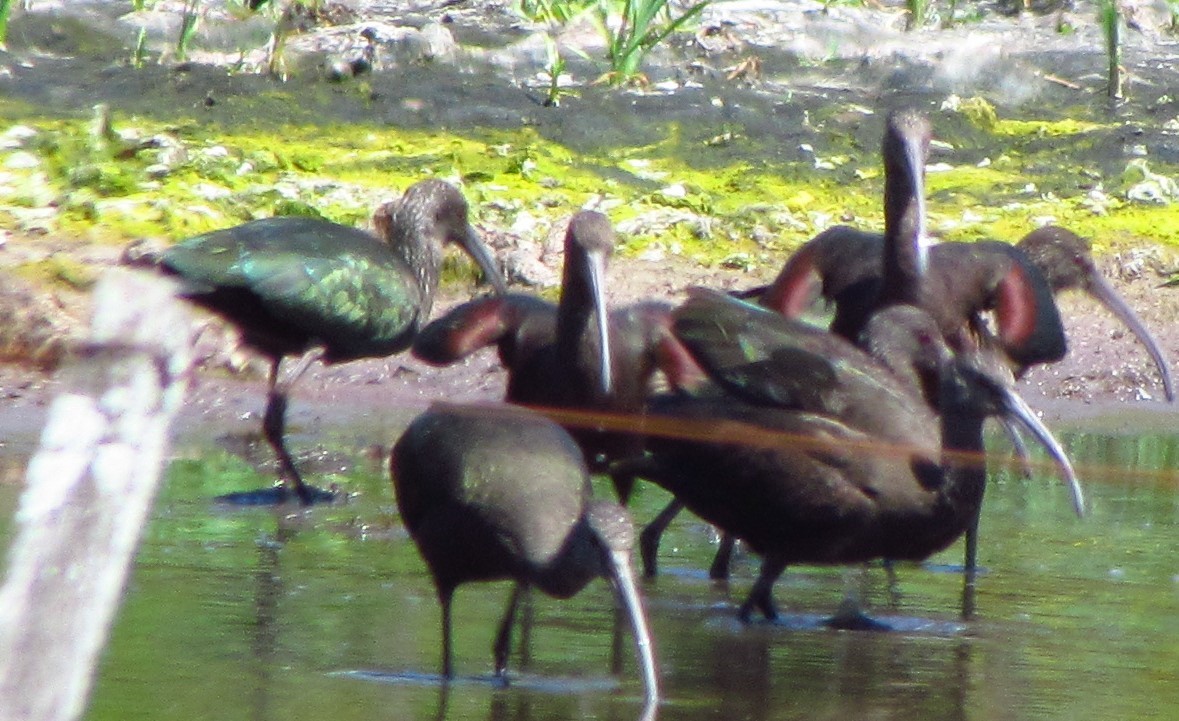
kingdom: Animalia
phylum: Chordata
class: Aves
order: Pelecaniformes
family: Threskiornithidae
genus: Plegadis
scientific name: Plegadis chihi
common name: White-faced ibis
